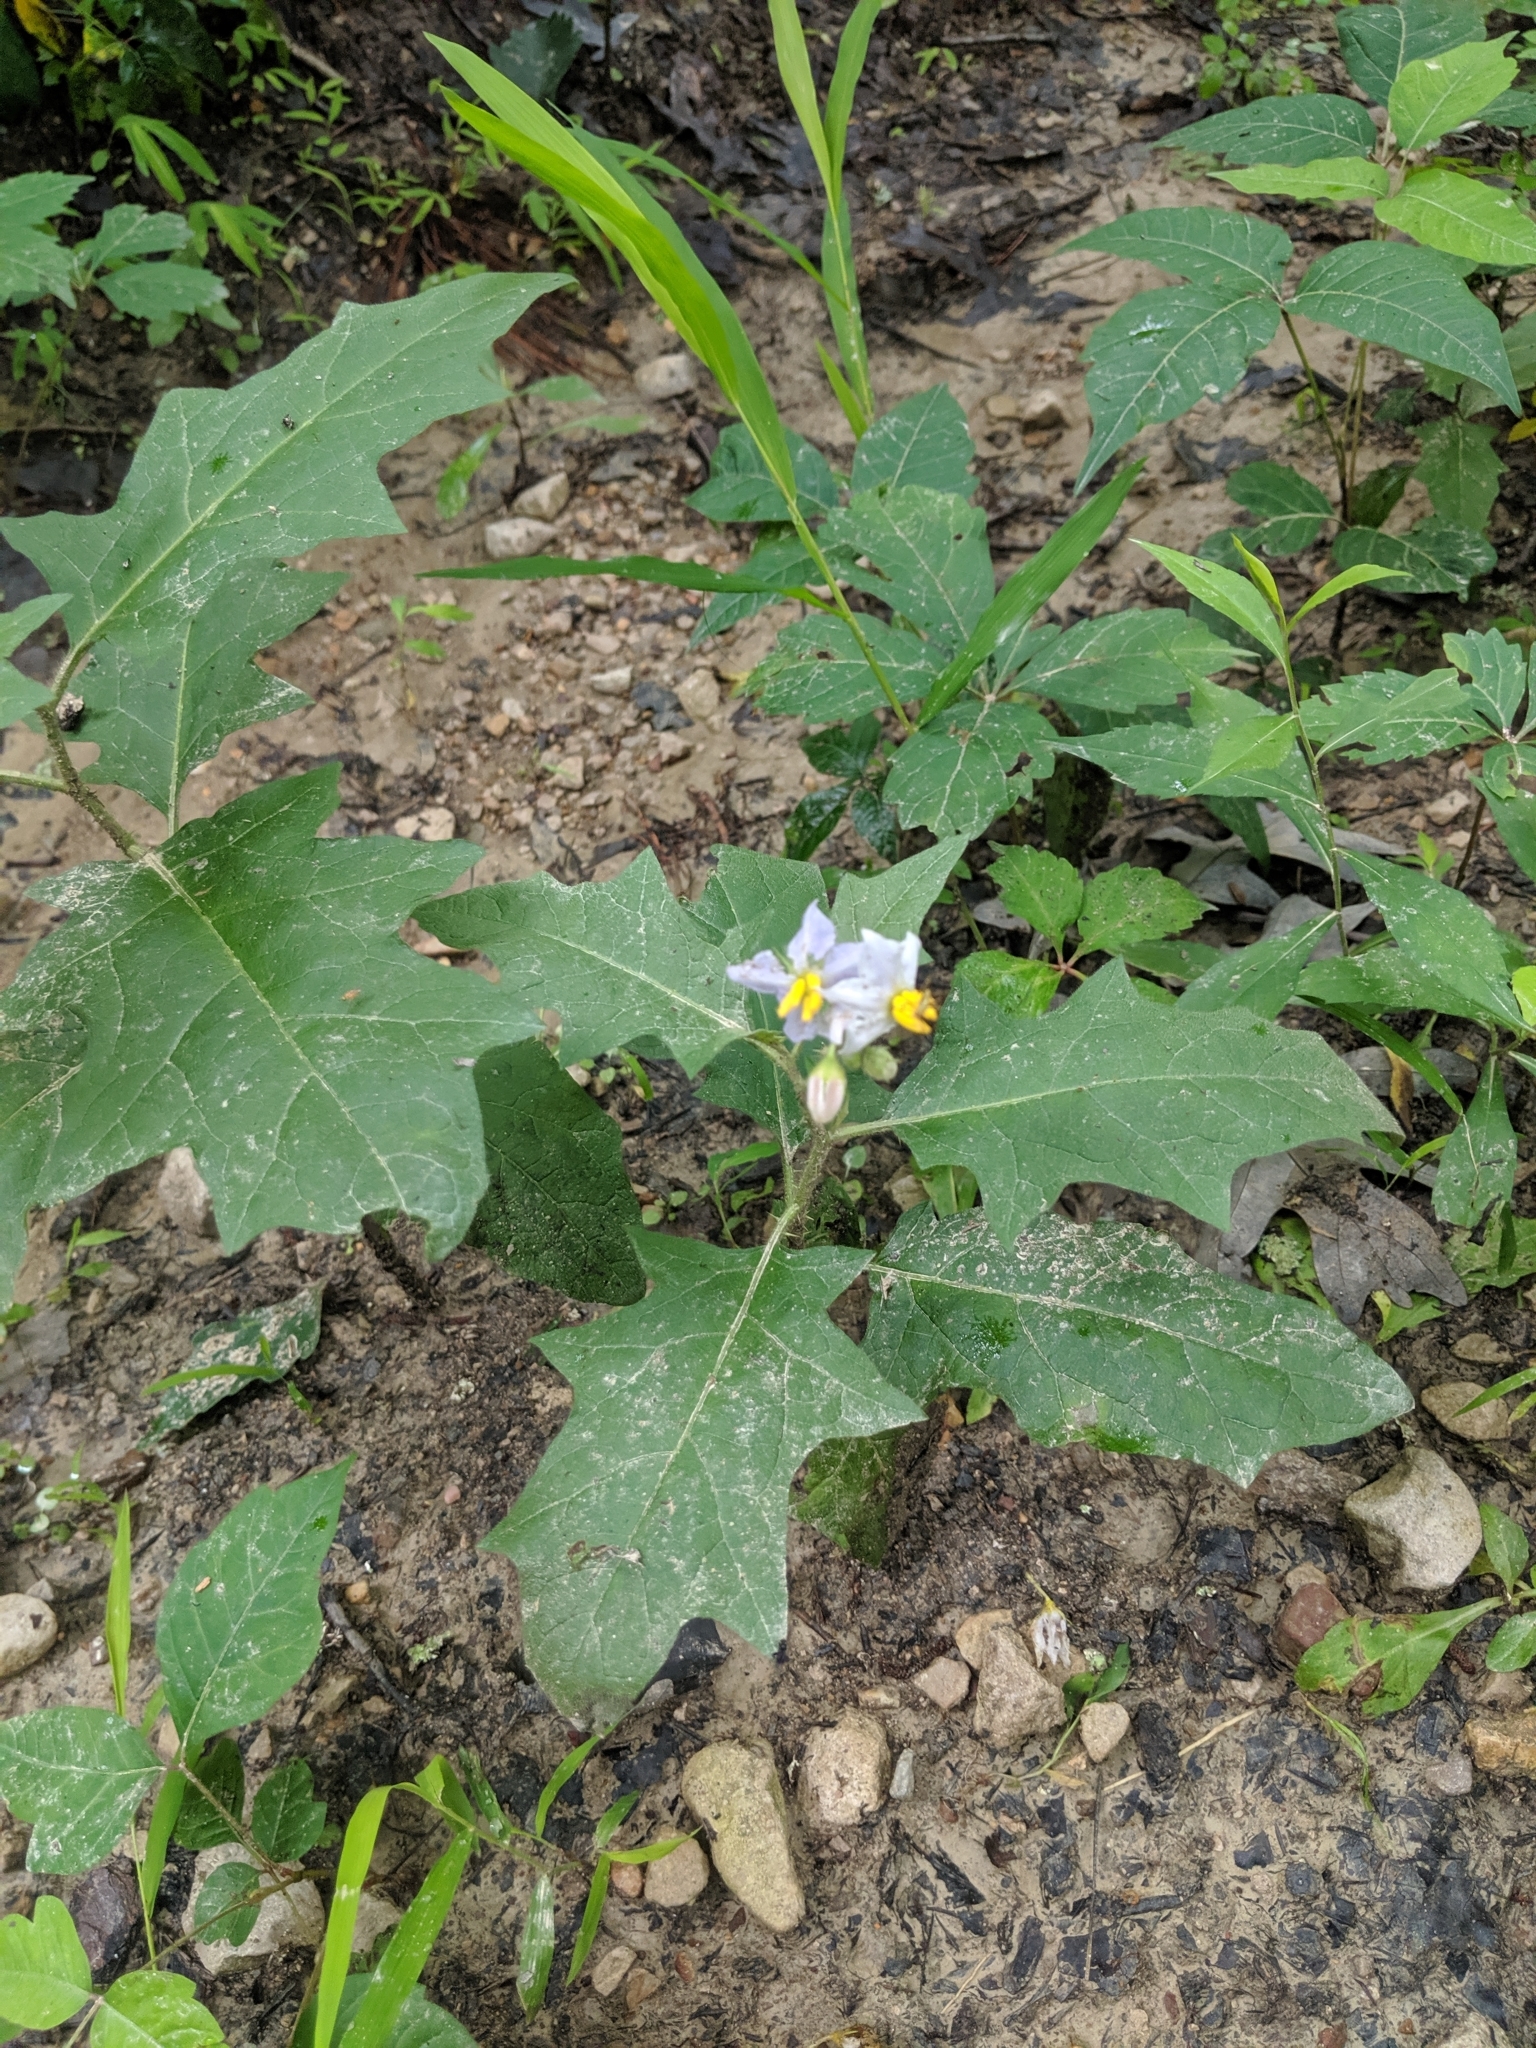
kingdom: Plantae
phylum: Tracheophyta
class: Magnoliopsida
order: Solanales
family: Solanaceae
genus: Solanum
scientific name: Solanum carolinense
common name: Horse-nettle
